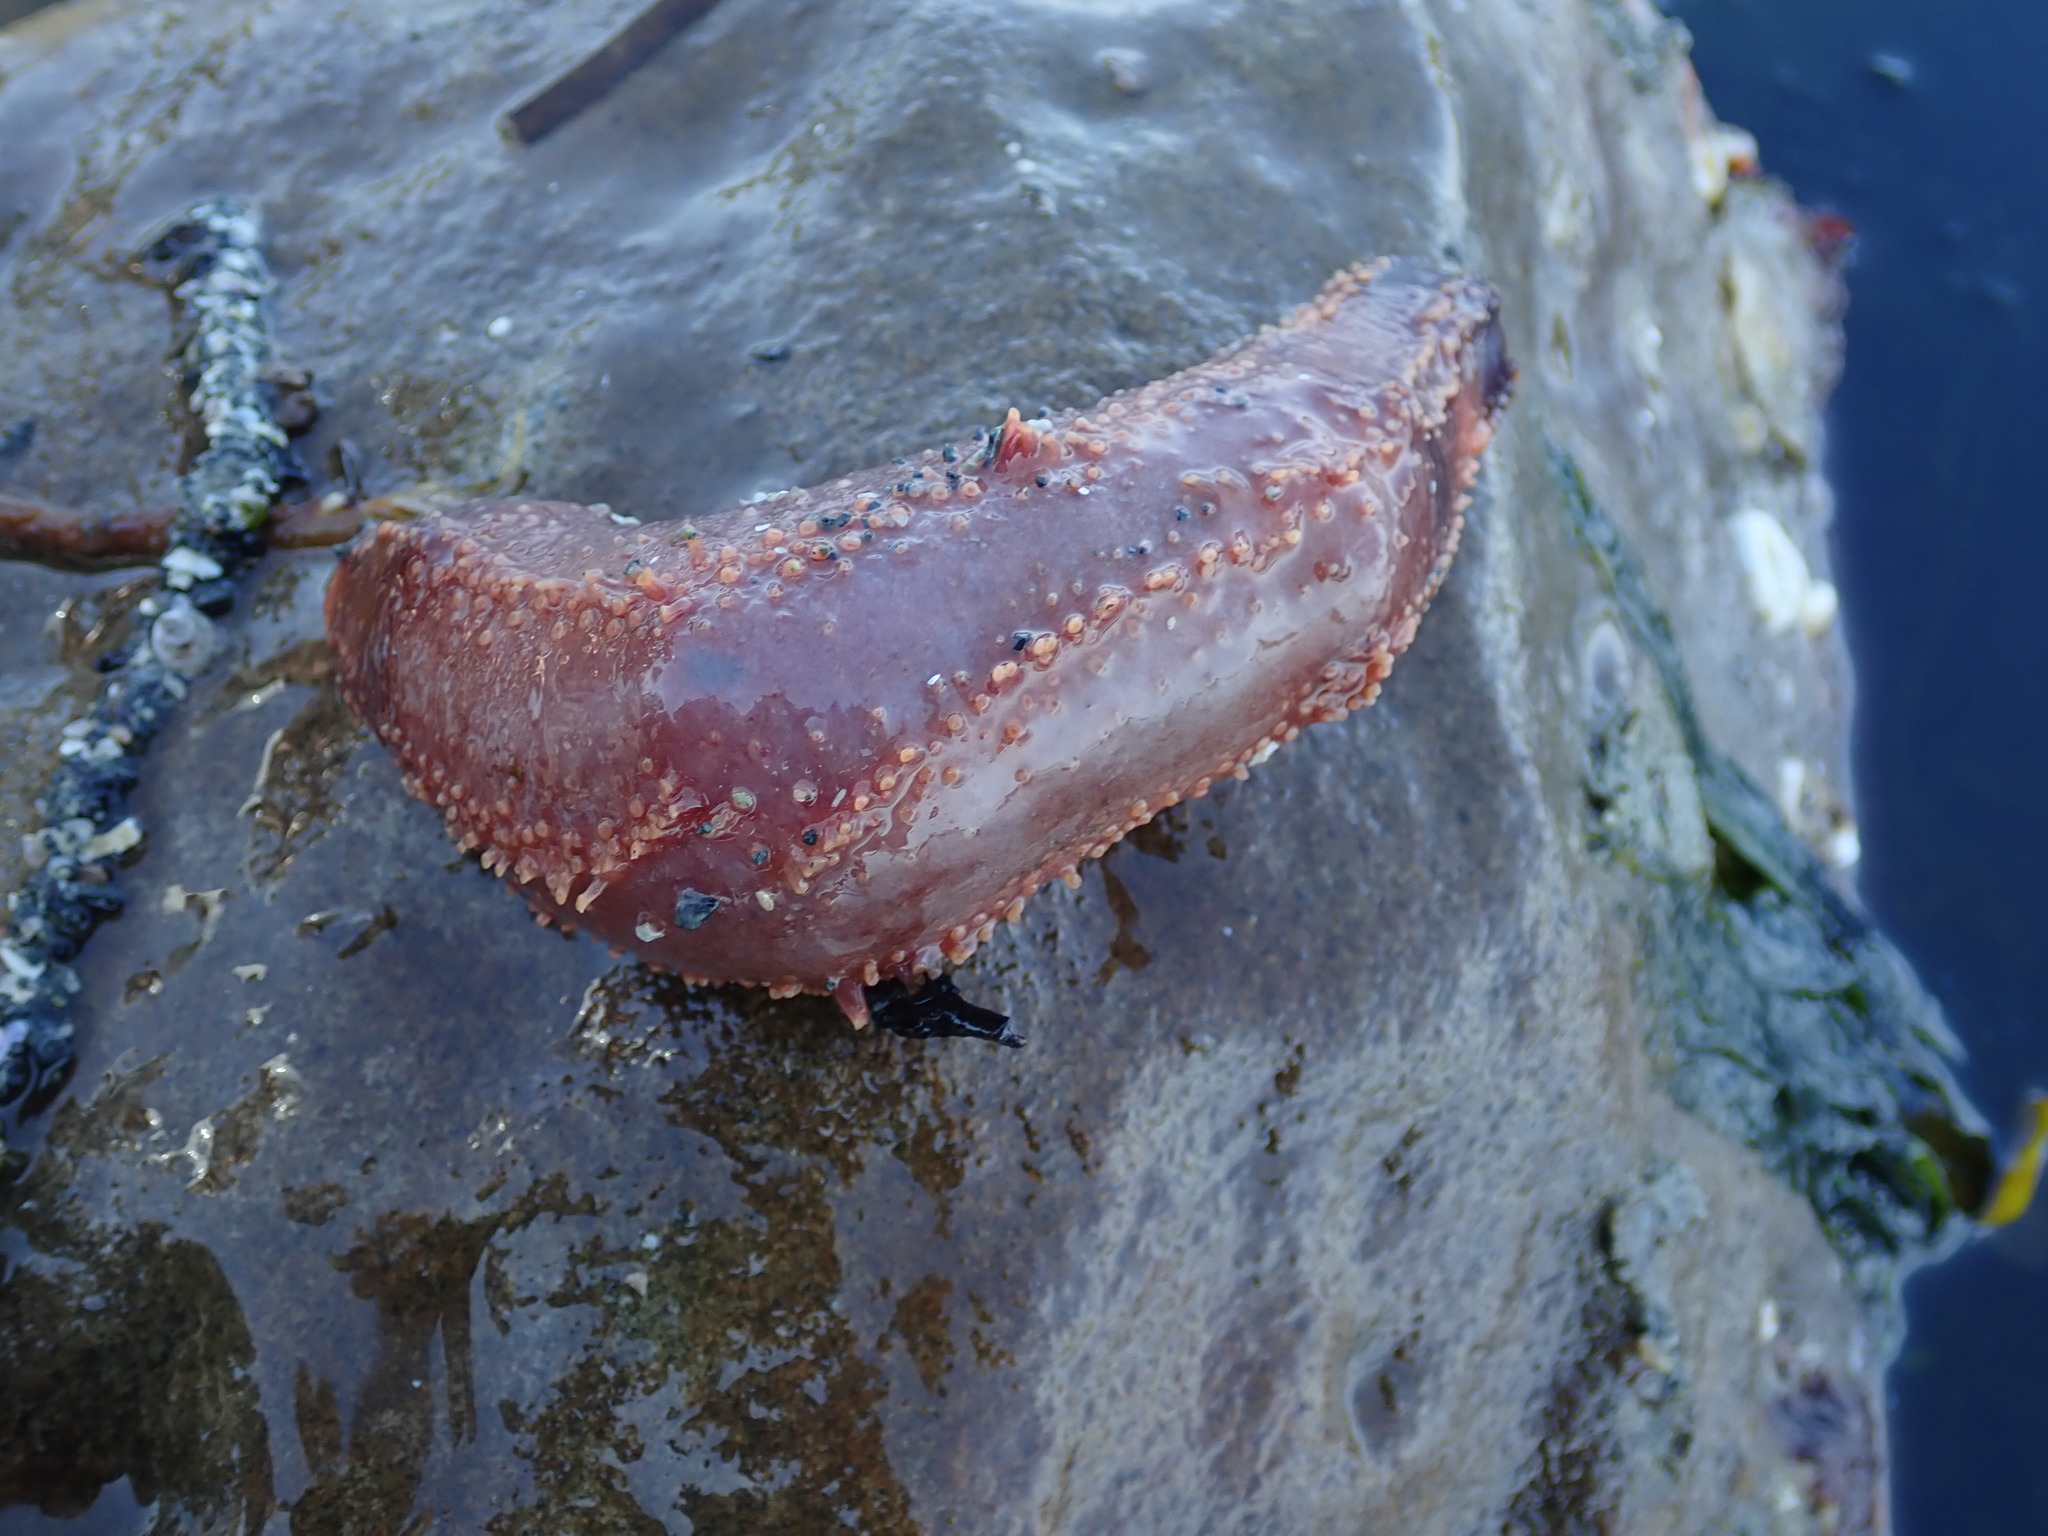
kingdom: Animalia
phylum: Echinodermata
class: Holothuroidea
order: Dendrochirotida
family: Cucumariidae
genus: Cucumaria
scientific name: Cucumaria miniata
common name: Orange sea cucumber
